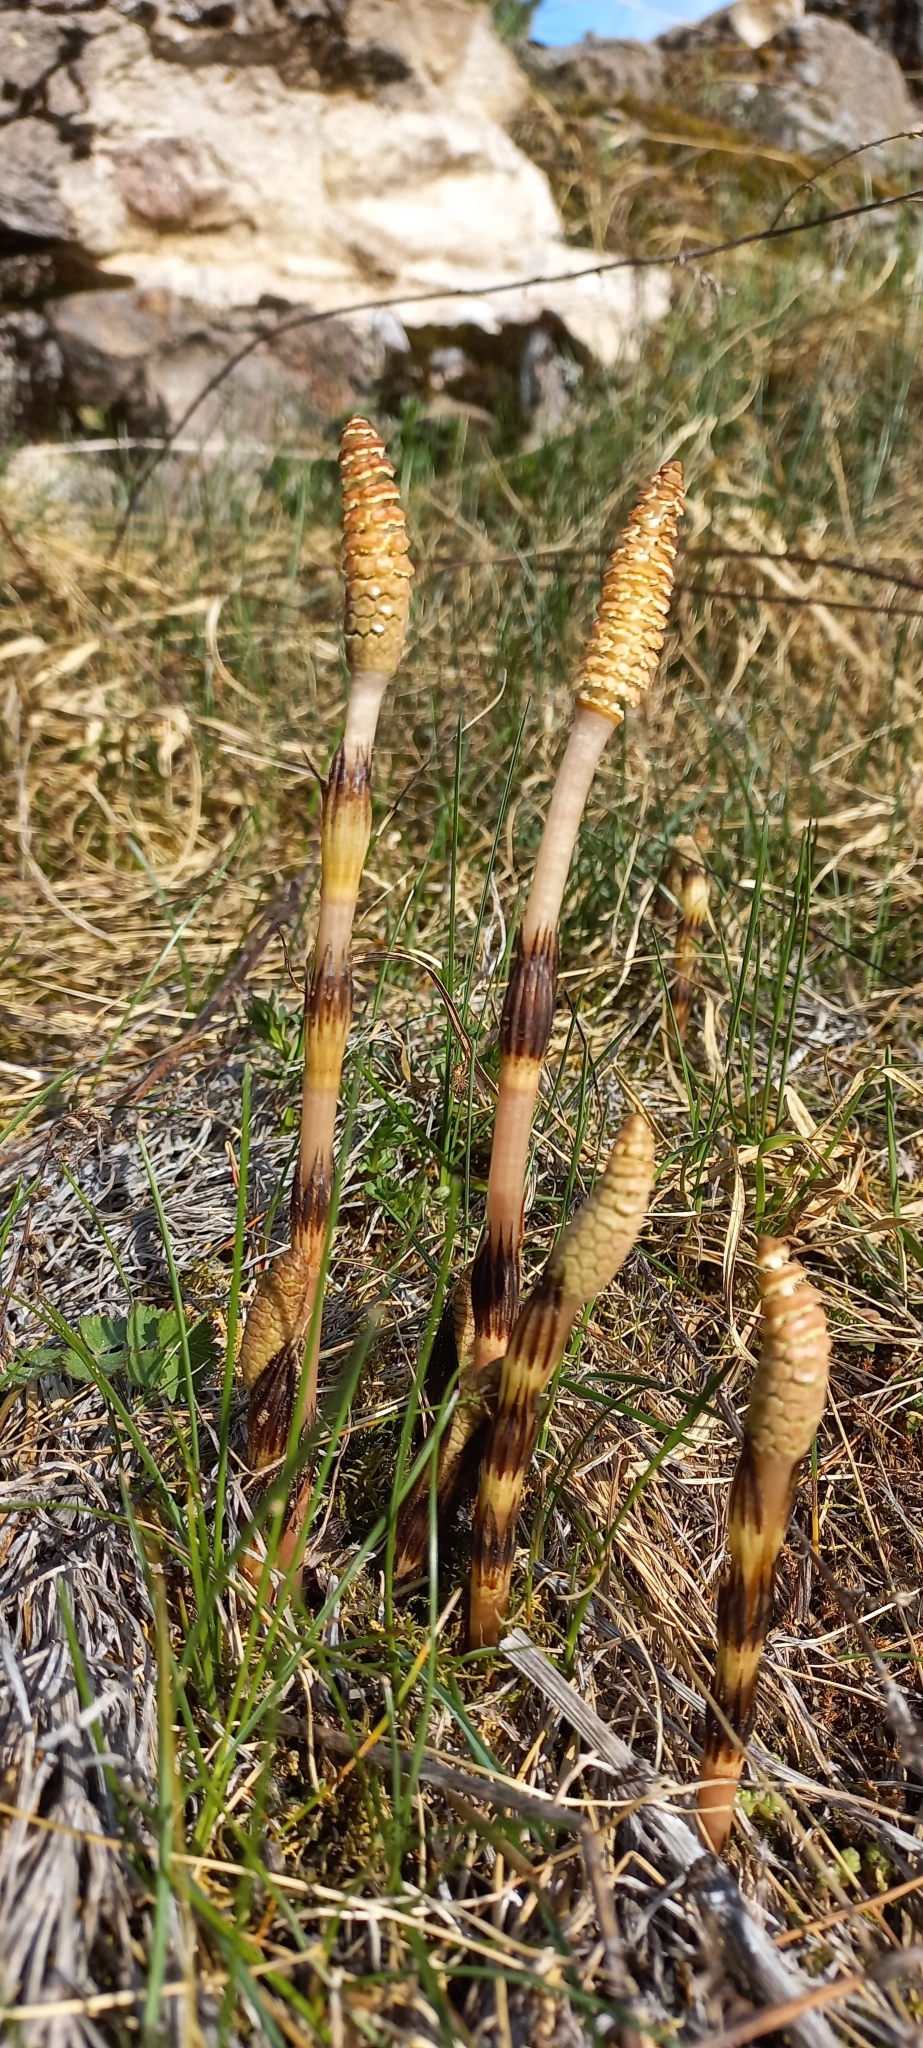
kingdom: Plantae
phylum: Tracheophyta
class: Polypodiopsida
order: Equisetales
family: Equisetaceae
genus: Equisetum
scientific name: Equisetum arvense
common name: Field horsetail
